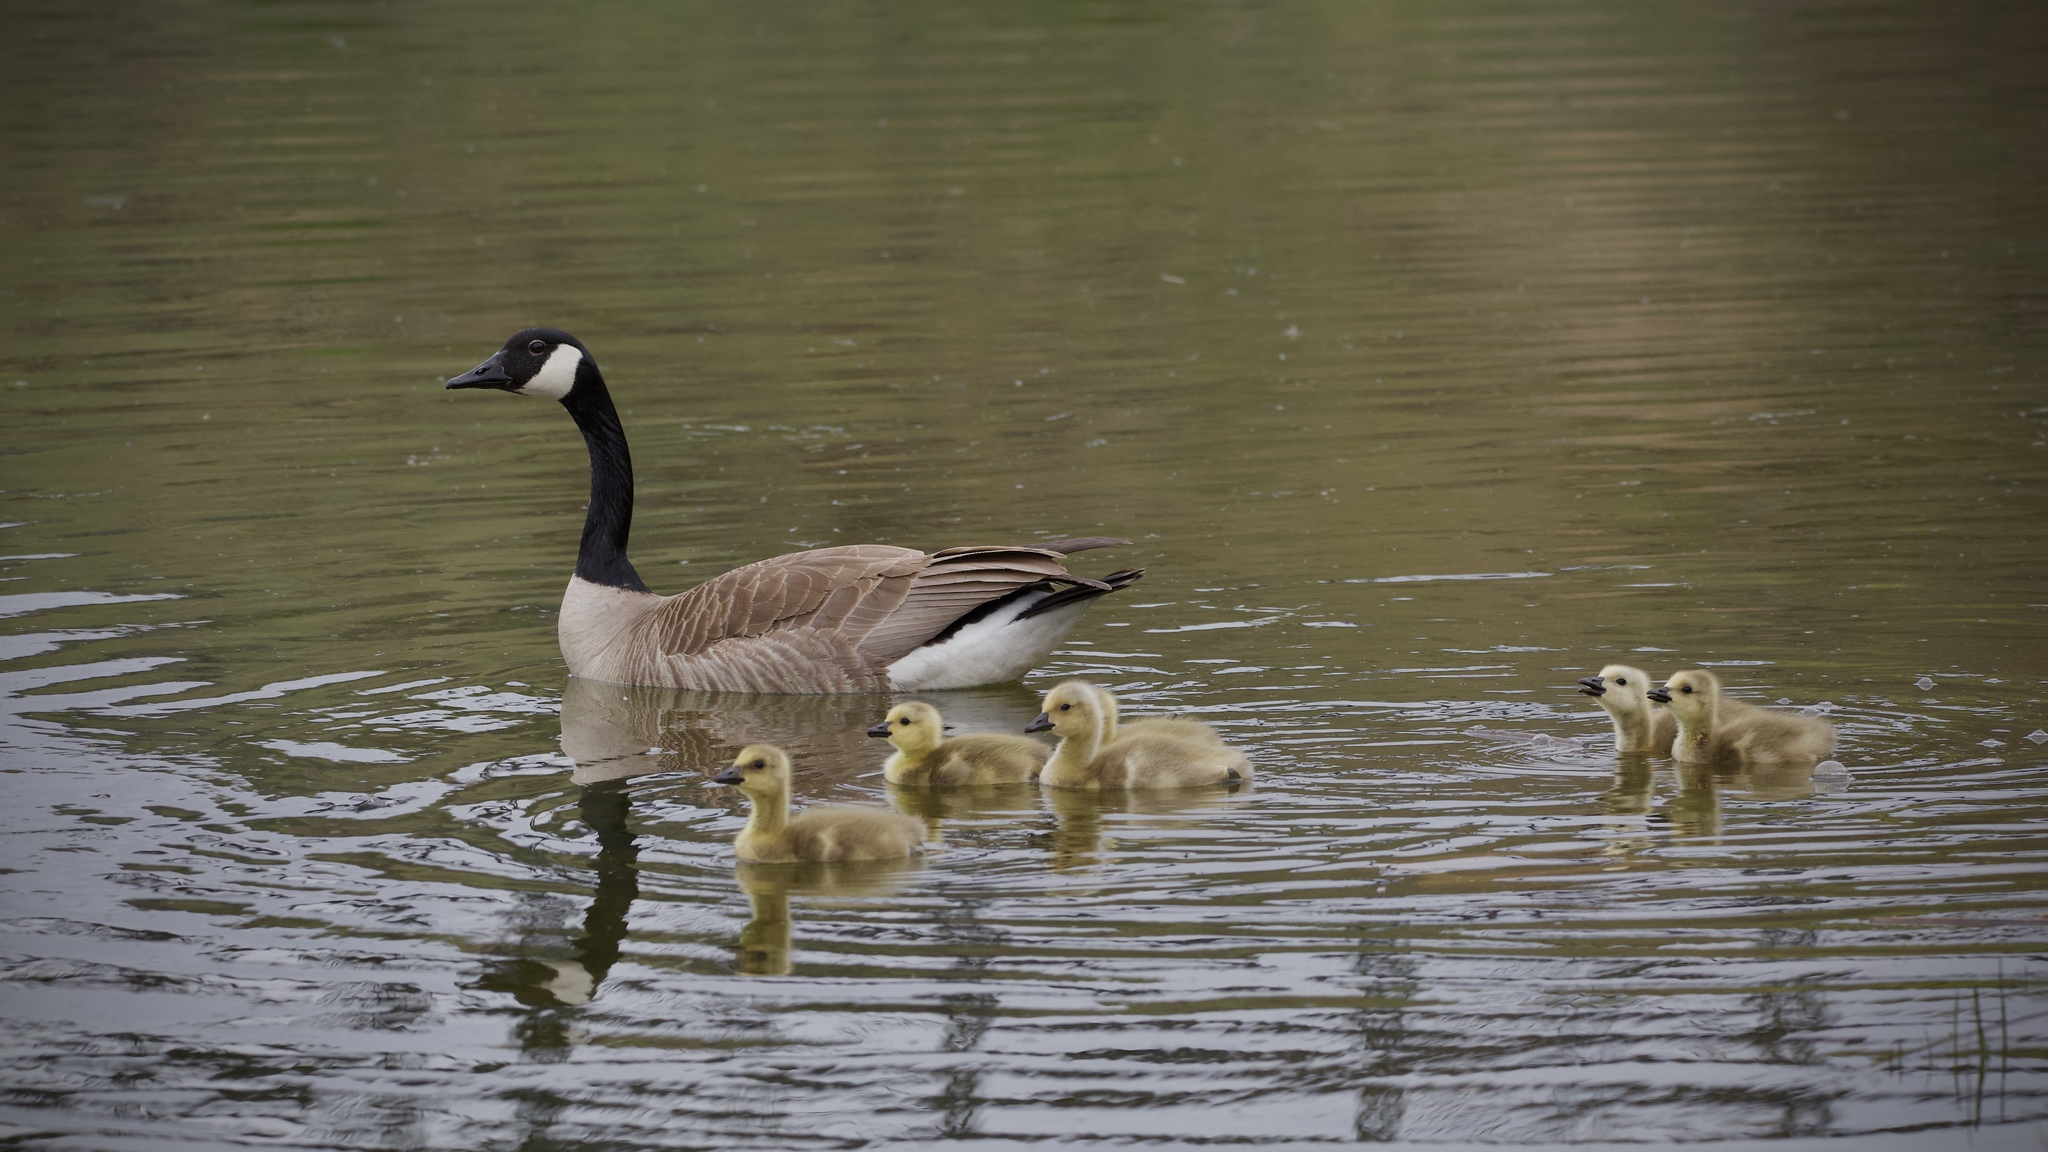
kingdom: Animalia
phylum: Chordata
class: Aves
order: Anseriformes
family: Anatidae
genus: Branta
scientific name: Branta canadensis
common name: Canada goose
